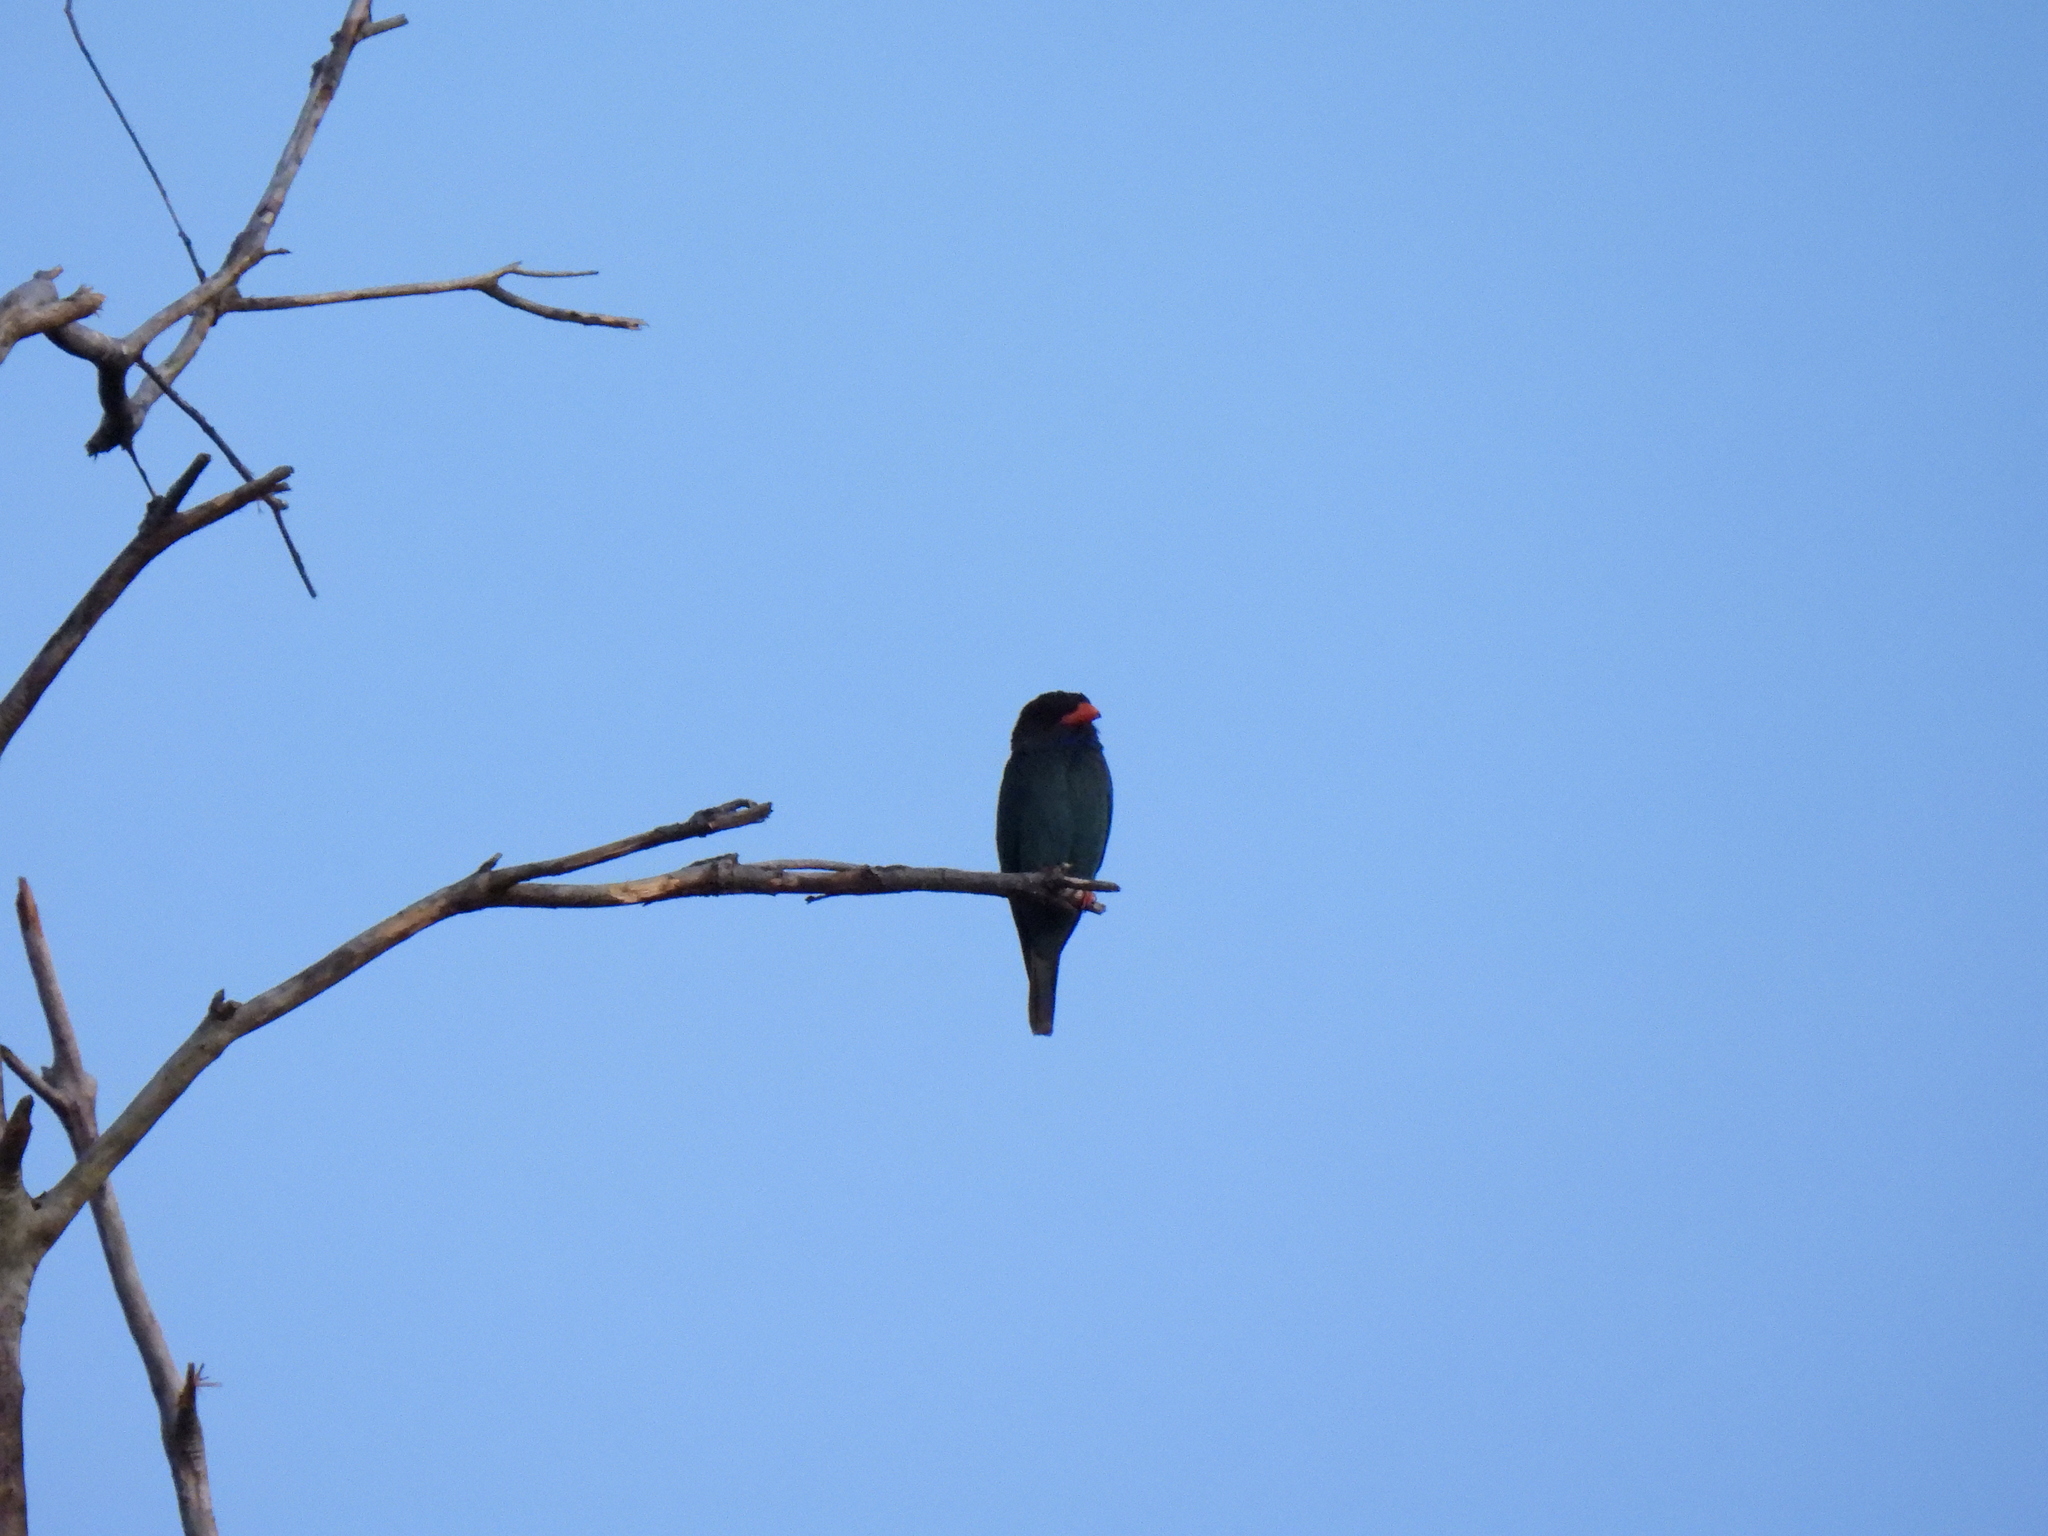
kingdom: Animalia
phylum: Chordata
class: Aves
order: Coraciiformes
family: Coraciidae
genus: Eurystomus
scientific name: Eurystomus orientalis
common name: Oriental dollarbird
